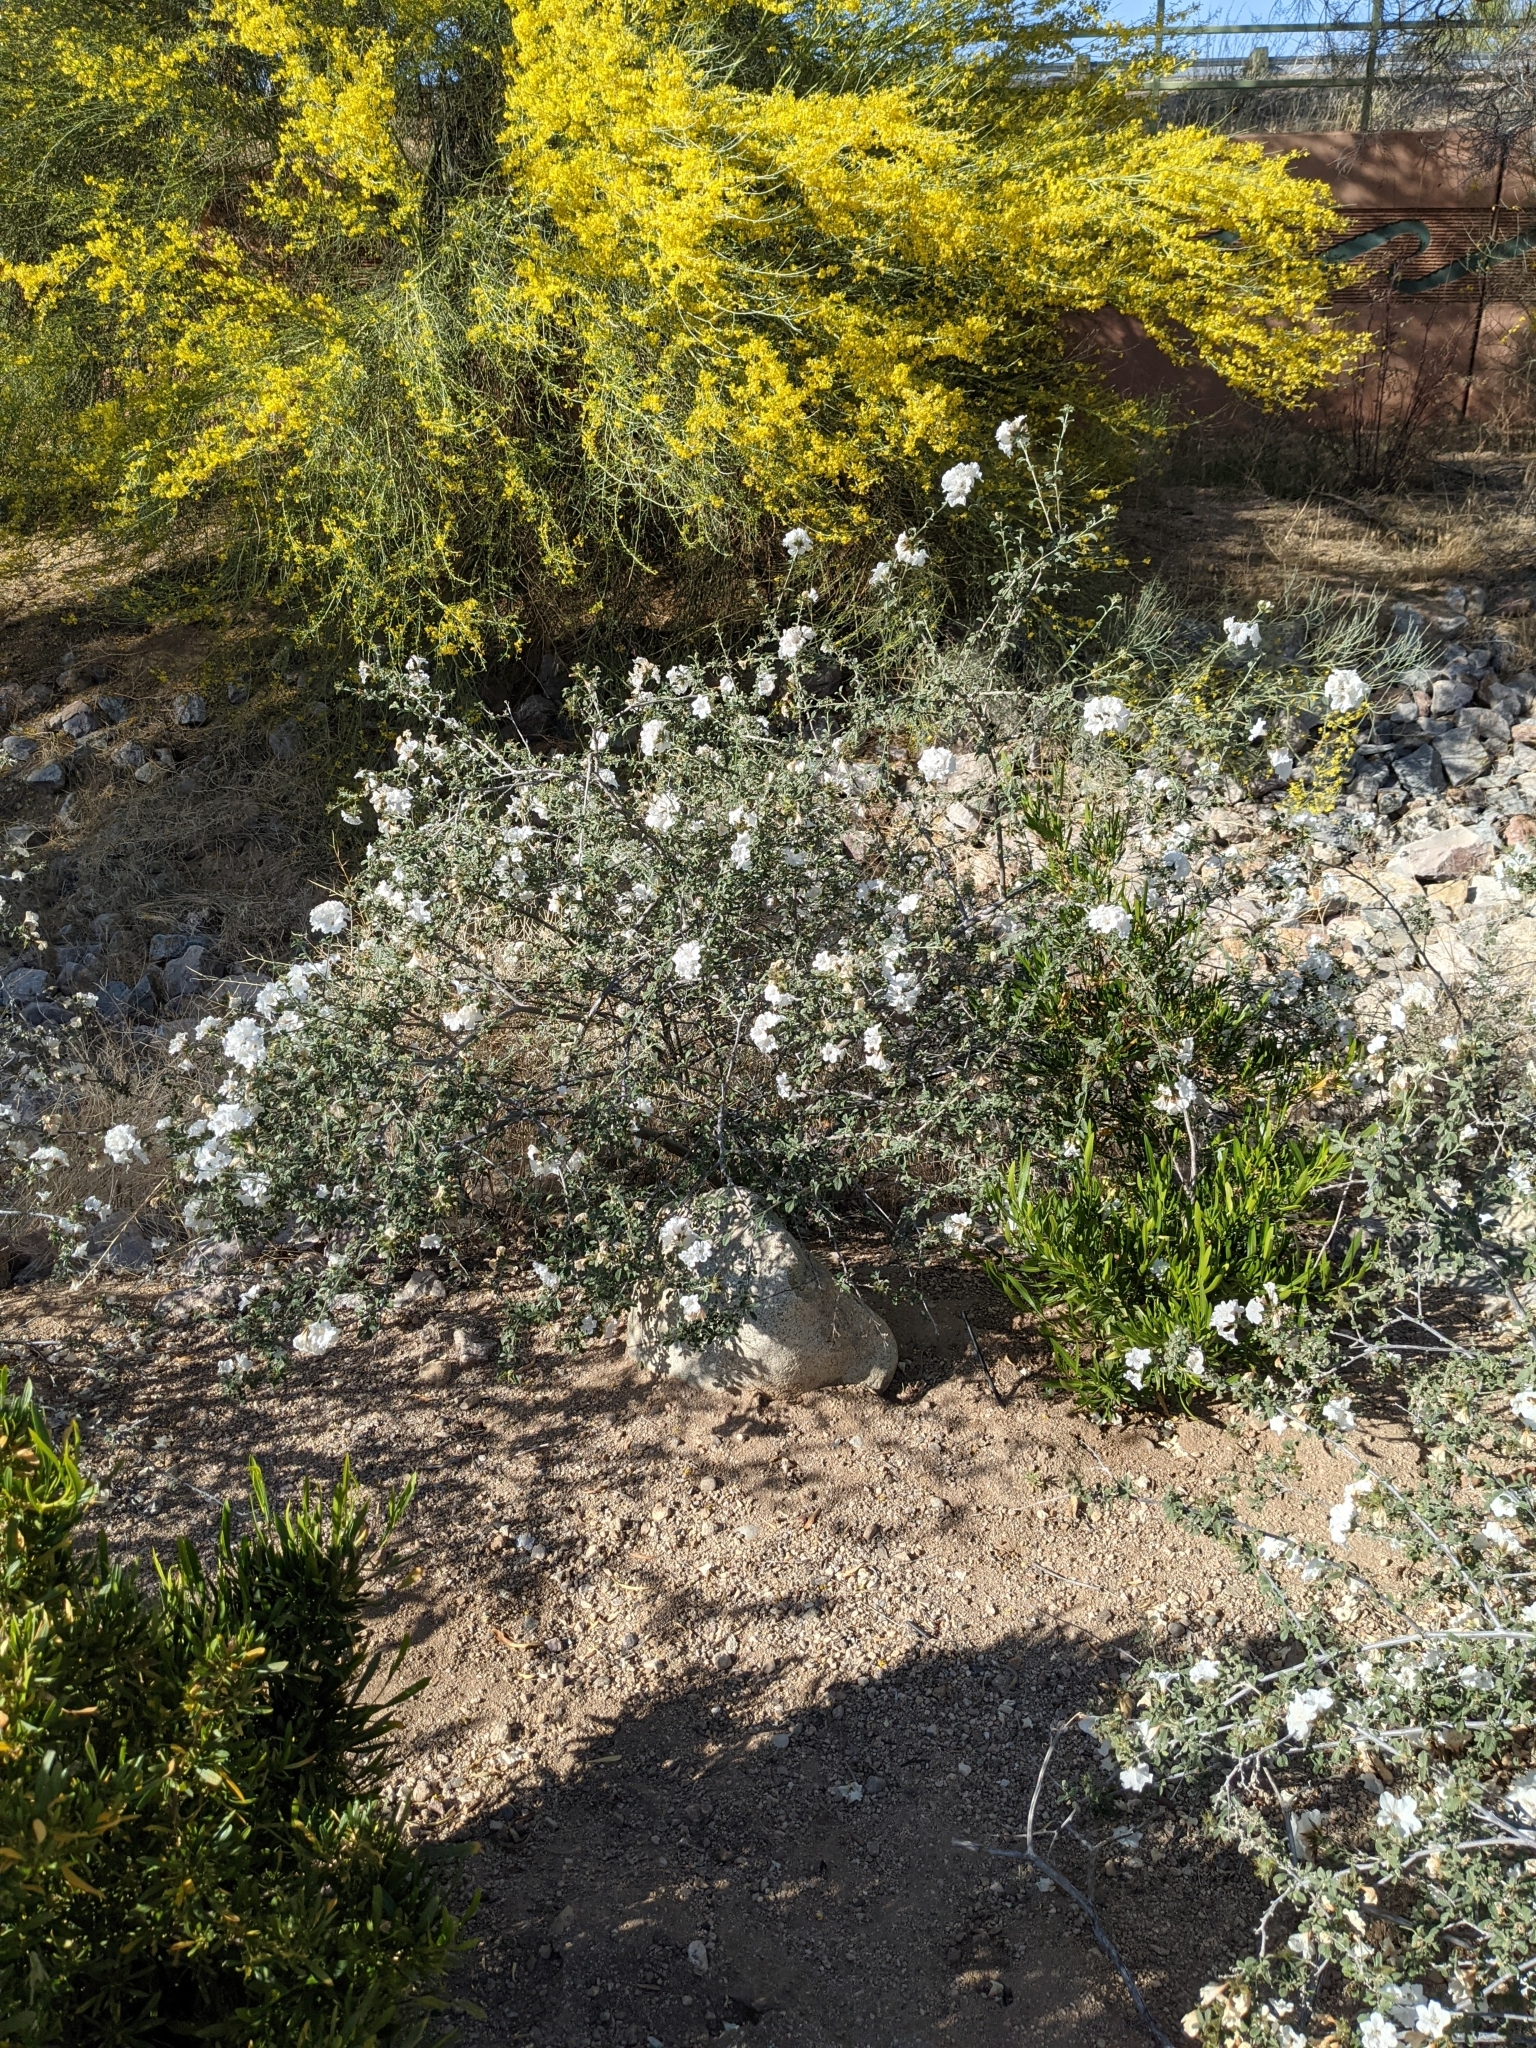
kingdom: Plantae
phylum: Tracheophyta
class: Magnoliopsida
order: Rosales
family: Rosaceae
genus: Fallugia
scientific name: Fallugia paradoxa
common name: Apache-plume
